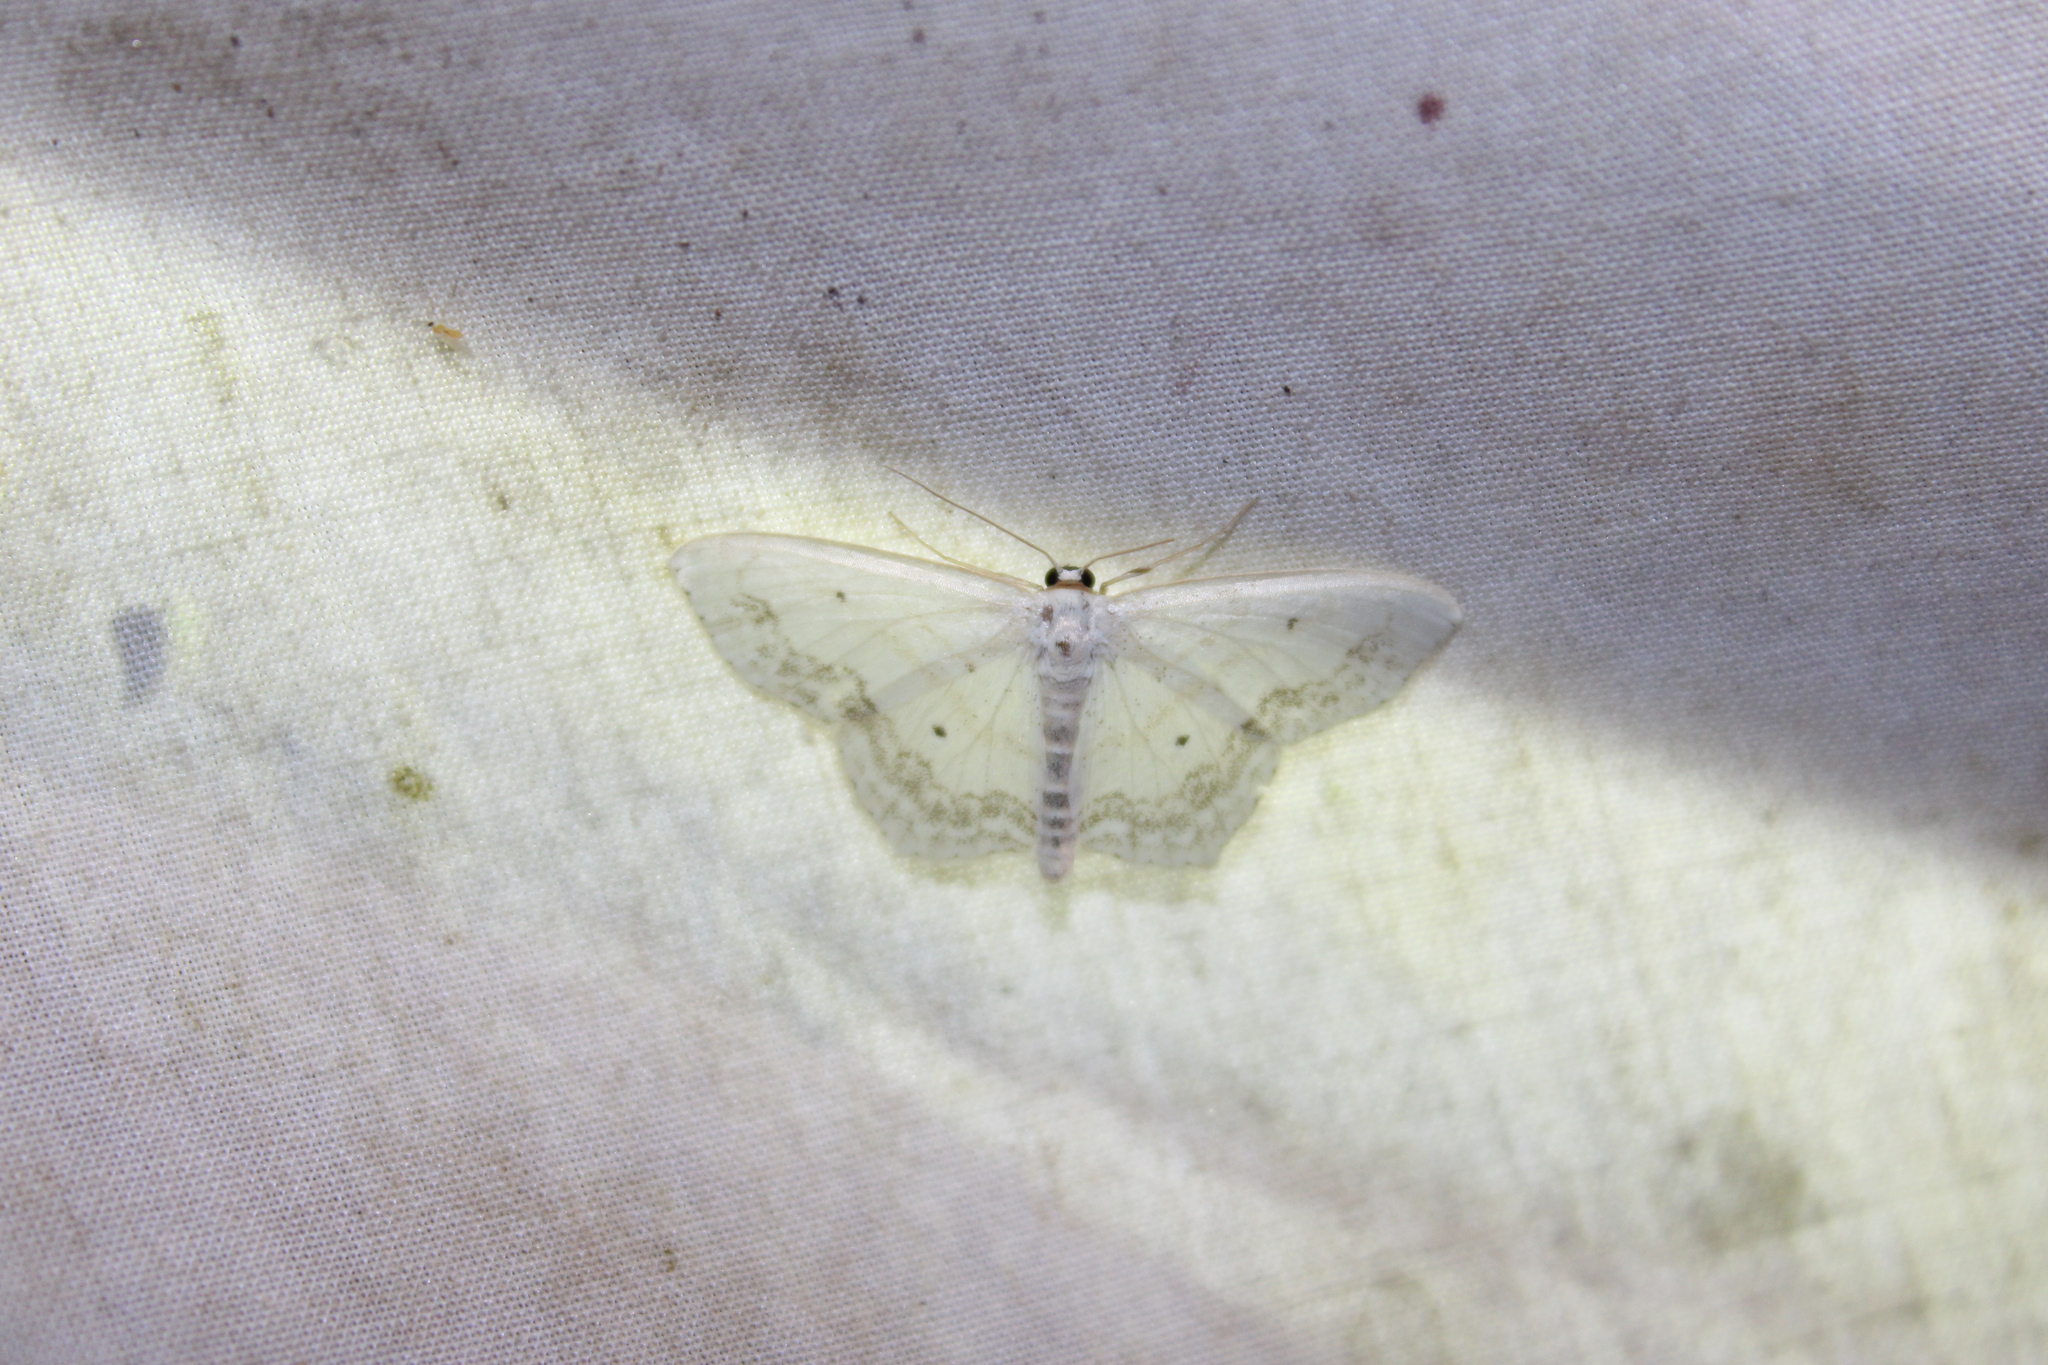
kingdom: Animalia
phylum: Arthropoda
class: Insecta
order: Lepidoptera
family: Geometridae
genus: Scopula
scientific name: Scopula limboundata
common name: Large lace border
